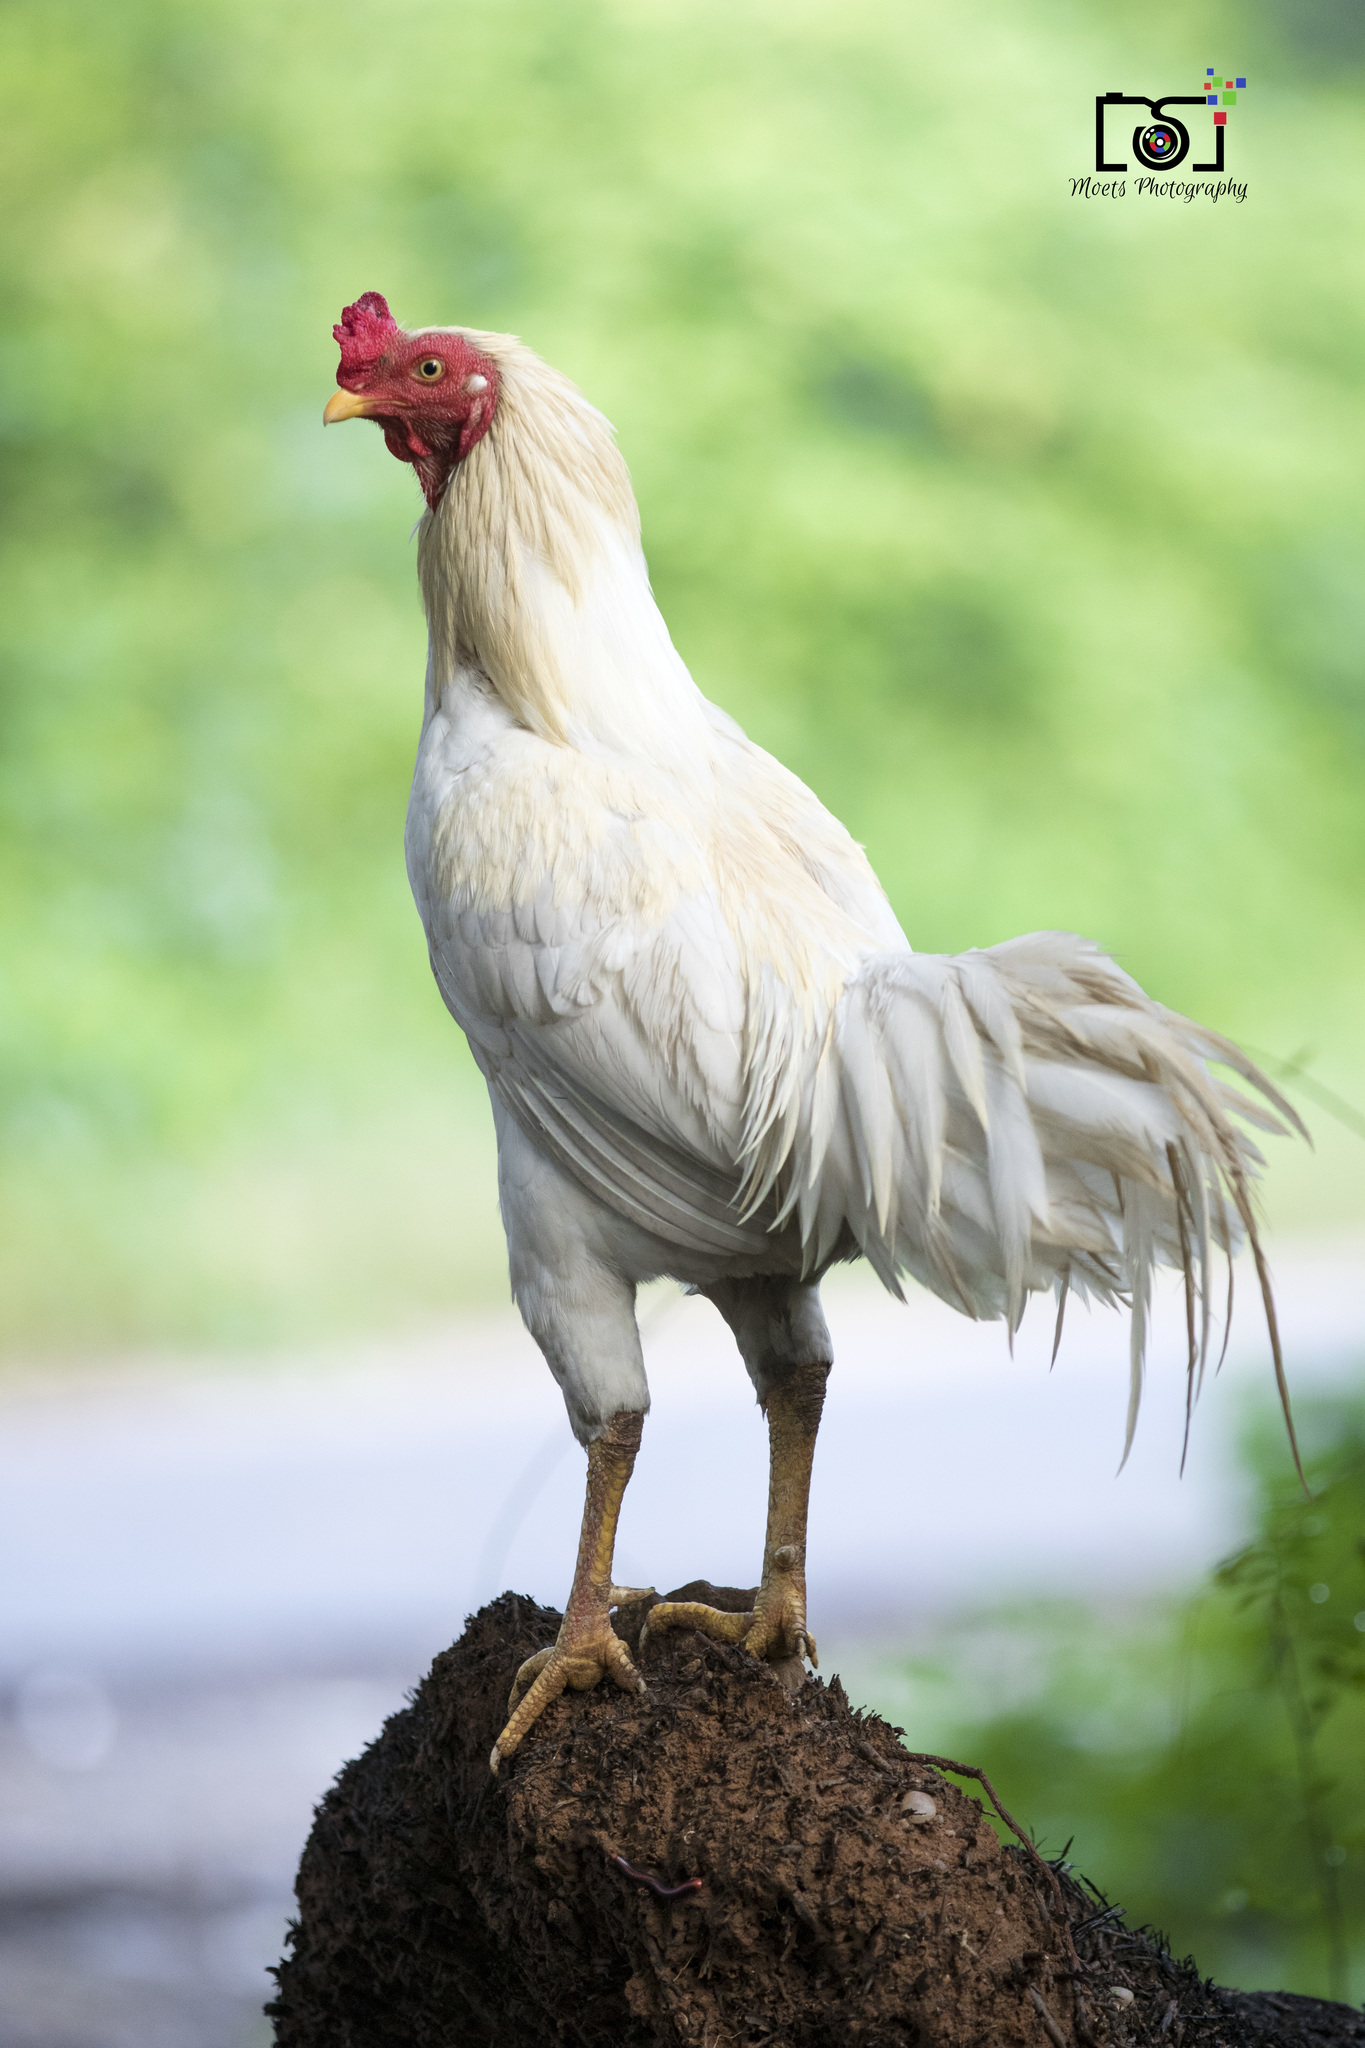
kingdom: Animalia
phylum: Chordata
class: Aves
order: Galliformes
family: Phasianidae
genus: Gallus
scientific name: Gallus gallus
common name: Red junglefowl
